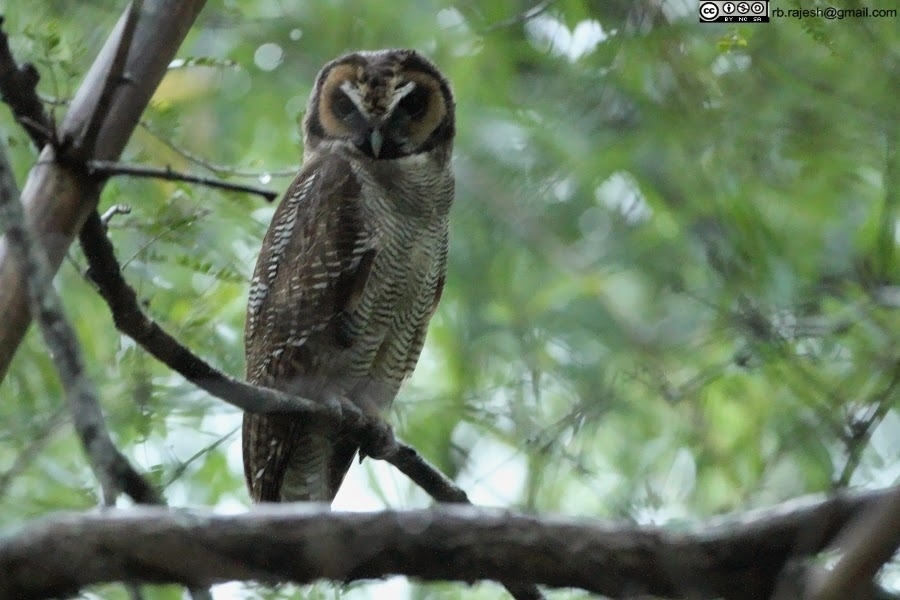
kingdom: Animalia
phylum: Chordata
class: Aves
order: Strigiformes
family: Strigidae
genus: Strix
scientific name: Strix leptogrammica
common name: Brown wood owl
